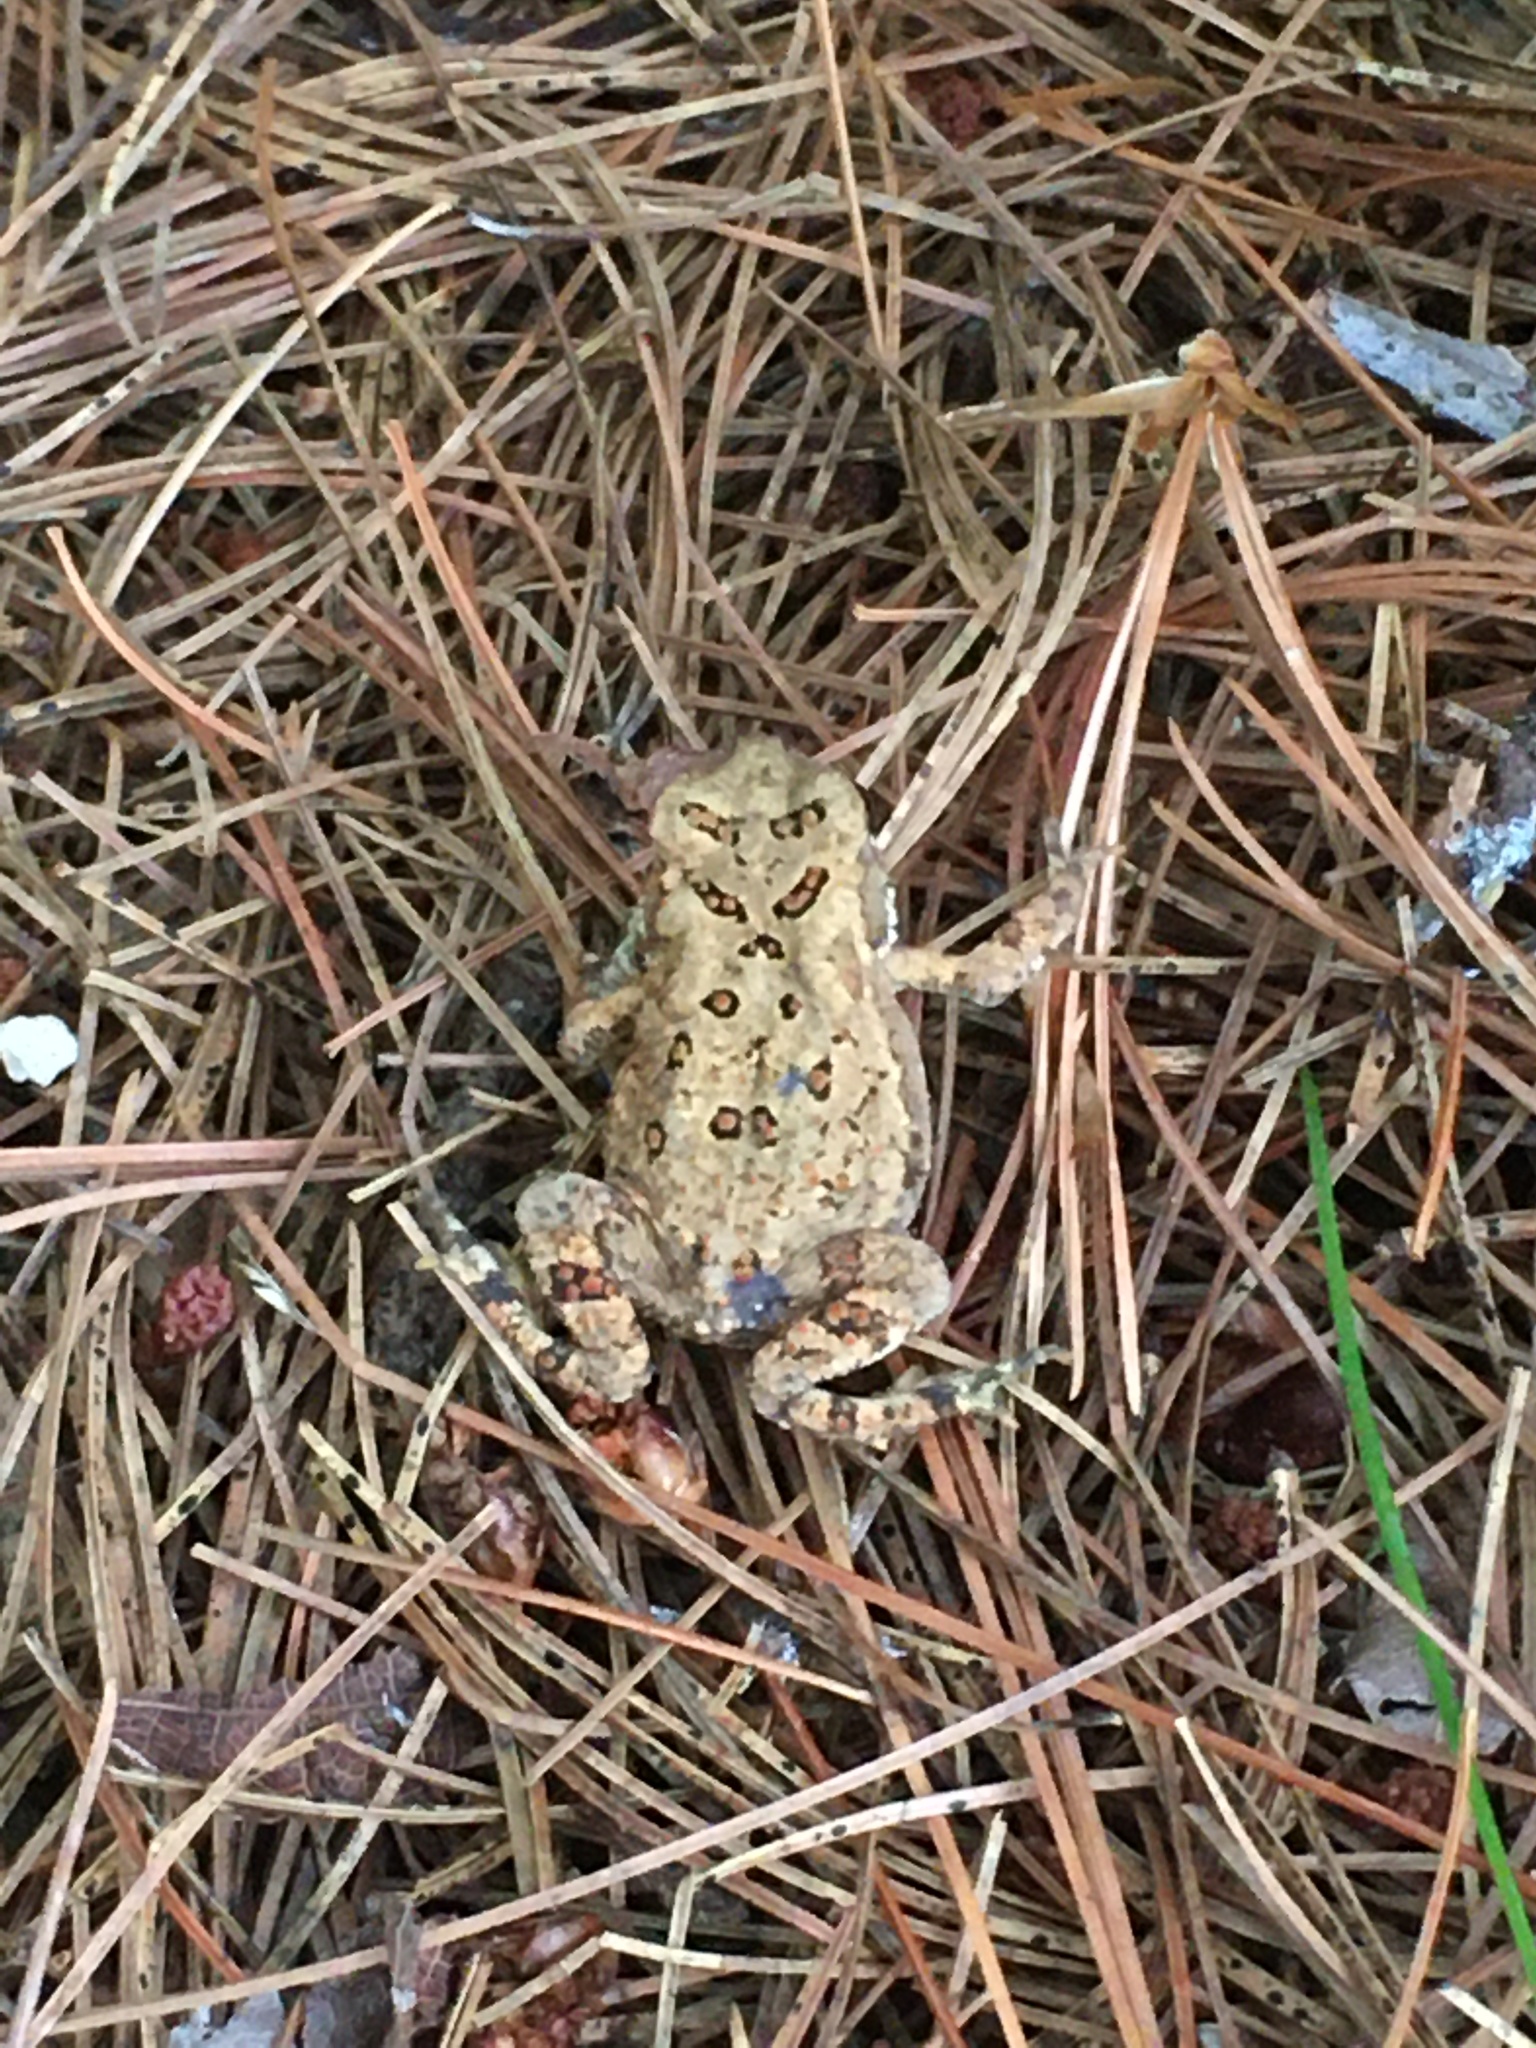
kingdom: Animalia
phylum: Chordata
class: Amphibia
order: Anura
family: Bufonidae
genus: Anaxyrus
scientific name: Anaxyrus americanus
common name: American toad
